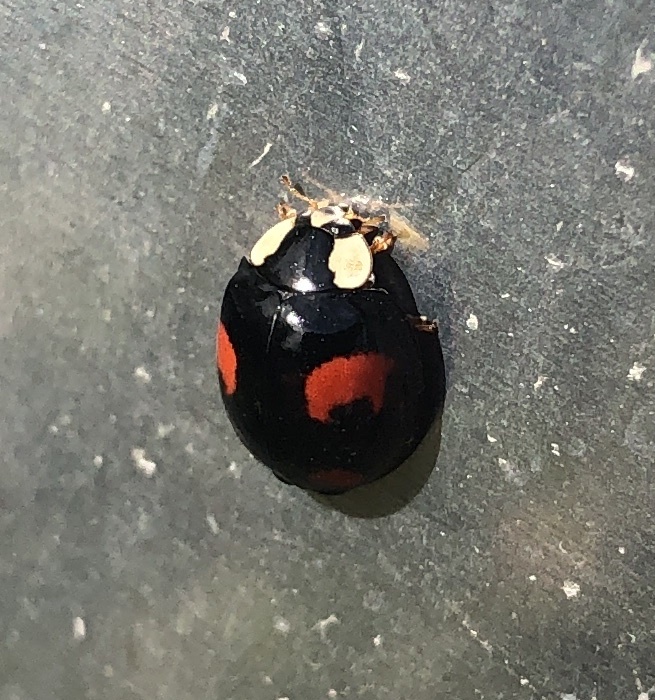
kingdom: Animalia
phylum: Arthropoda
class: Insecta
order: Coleoptera
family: Coccinellidae
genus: Harmonia
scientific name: Harmonia axyridis
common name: Harlequin ladybird
